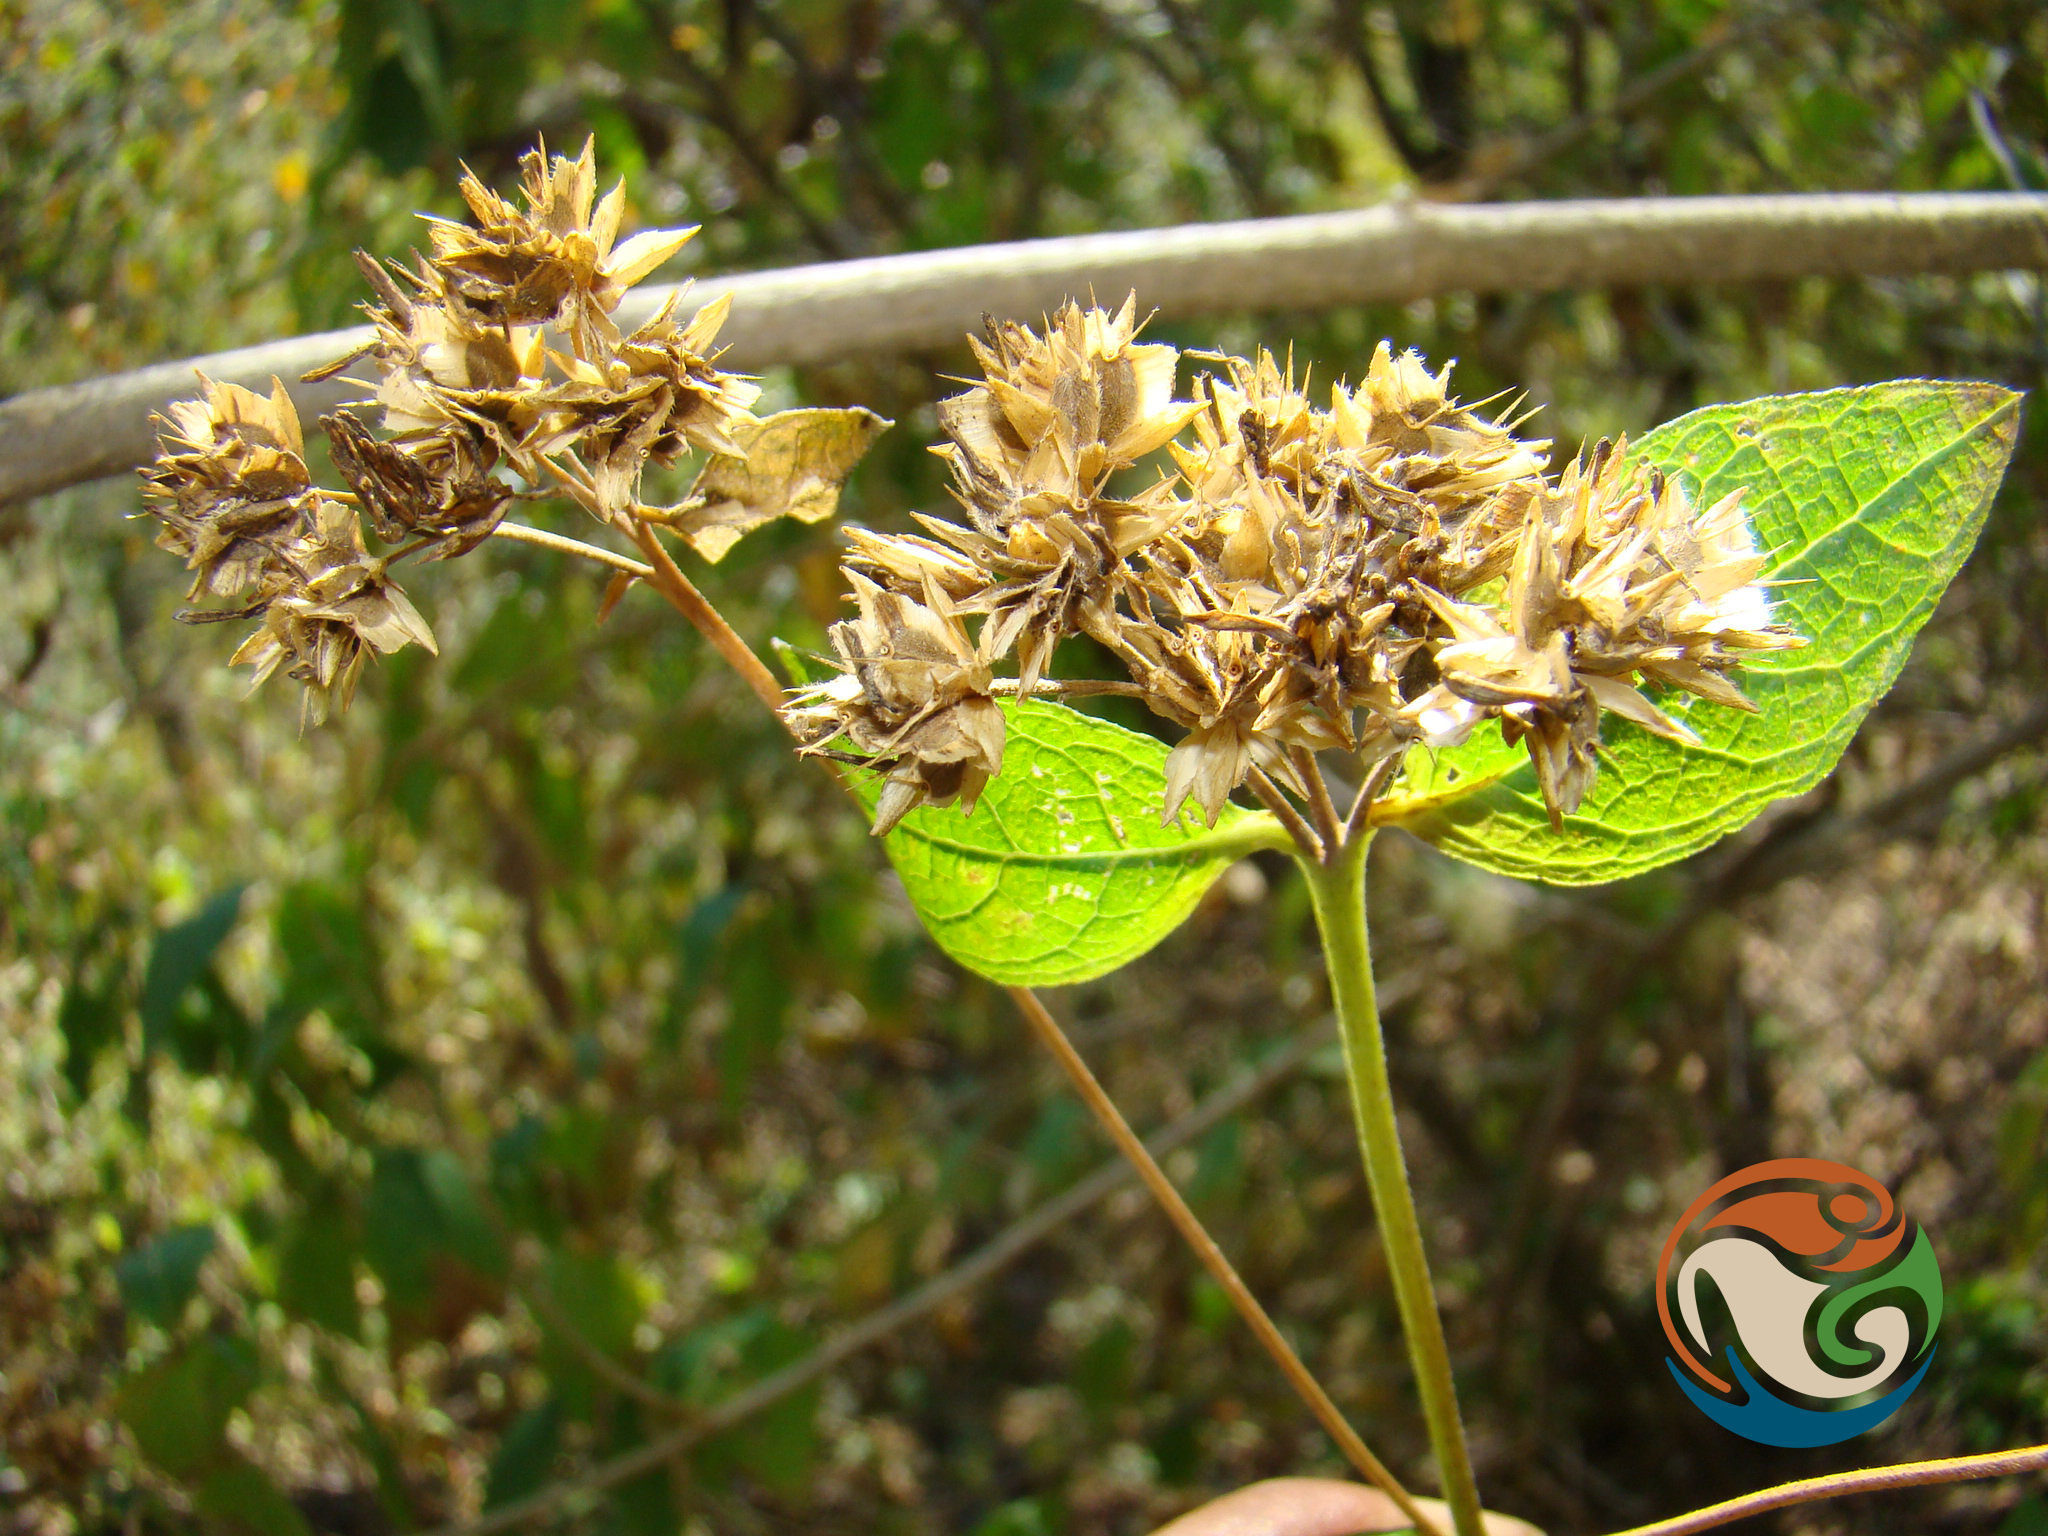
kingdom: Plantae
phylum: Tracheophyta
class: Magnoliopsida
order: Asterales
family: Asteraceae
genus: Verbesina
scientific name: Verbesina oligantha
